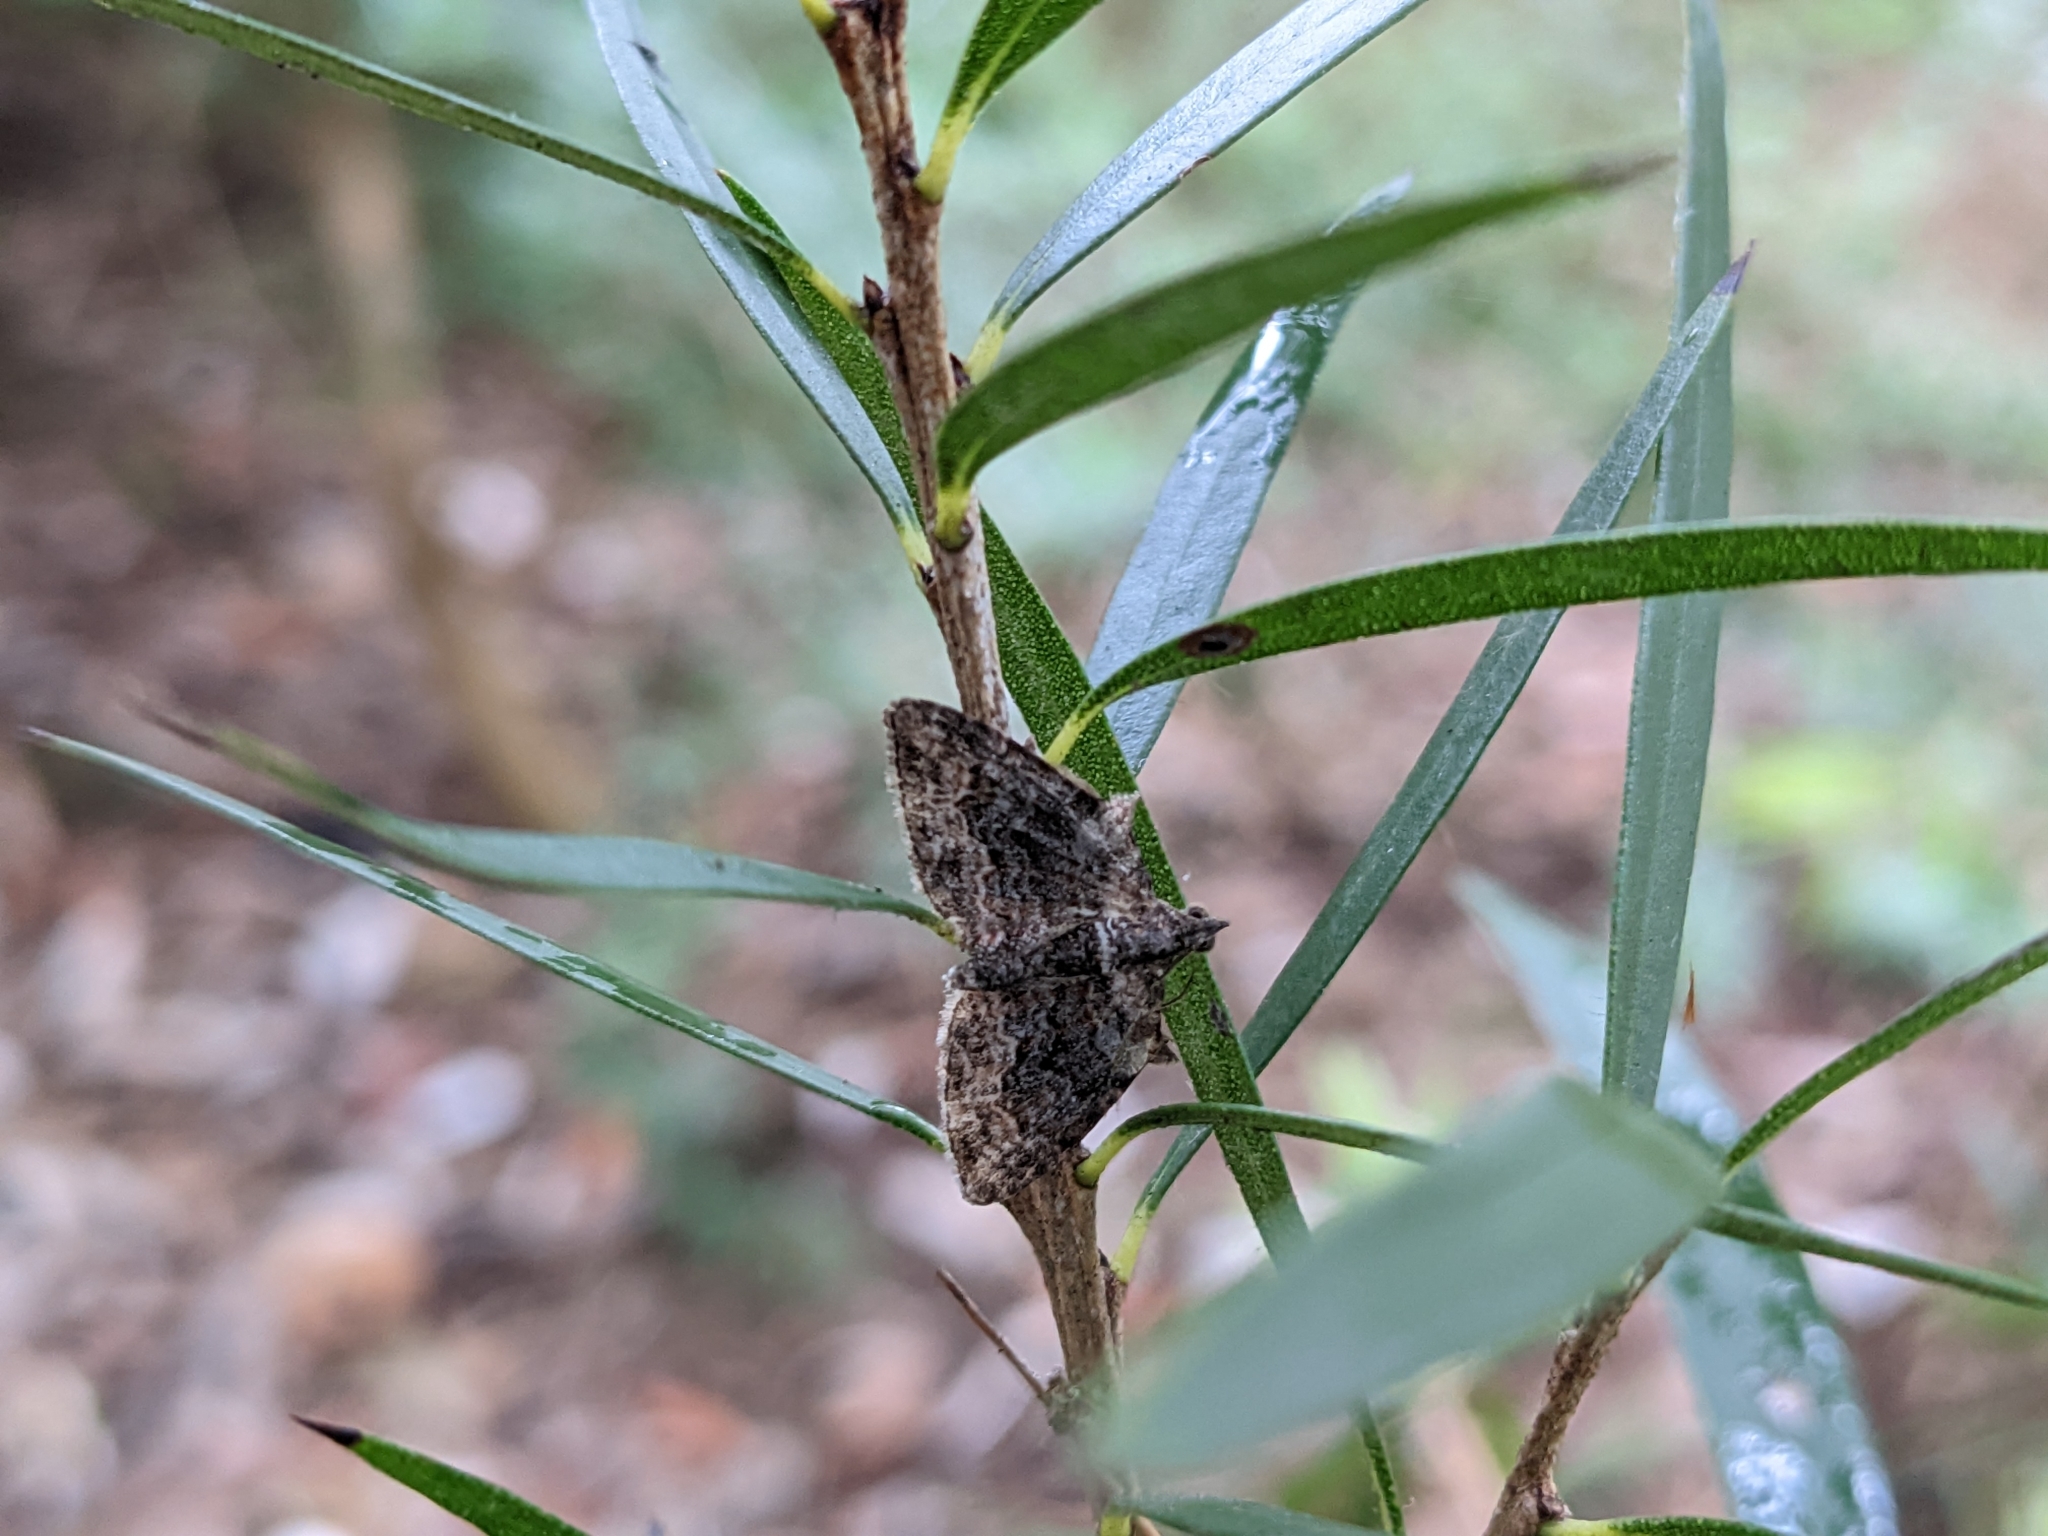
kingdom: Animalia
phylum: Arthropoda
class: Insecta
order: Lepidoptera
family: Geometridae
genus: Phrissogonus
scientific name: Phrissogonus laticostata
